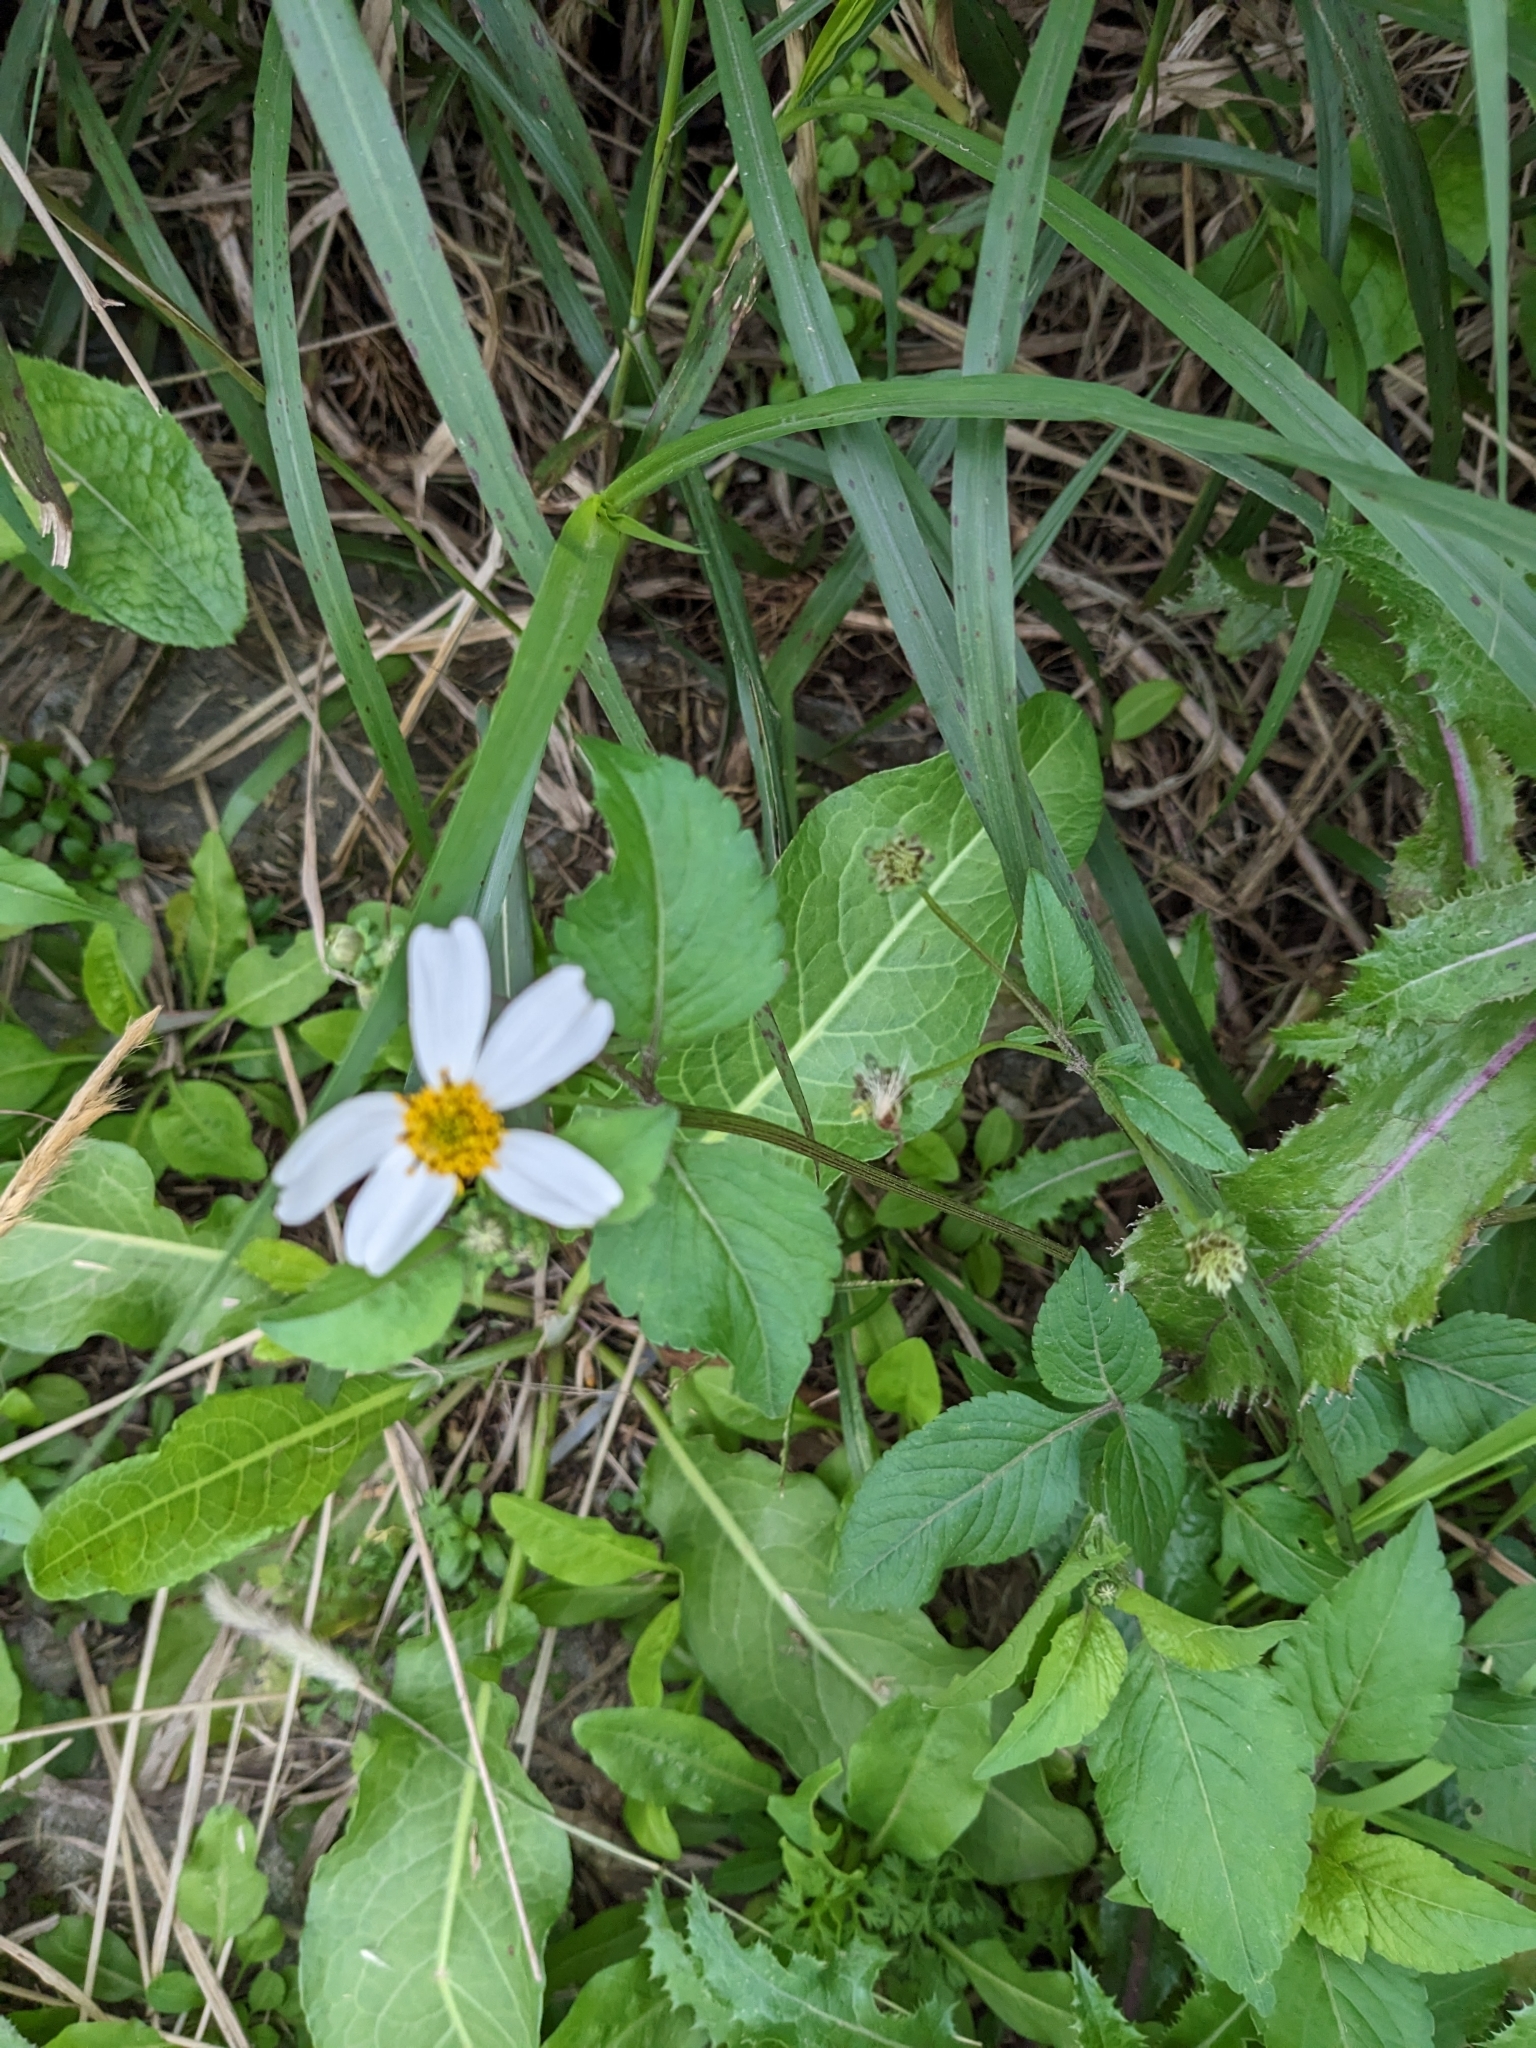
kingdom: Plantae
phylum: Tracheophyta
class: Magnoliopsida
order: Asterales
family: Asteraceae
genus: Bidens
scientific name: Bidens alba
